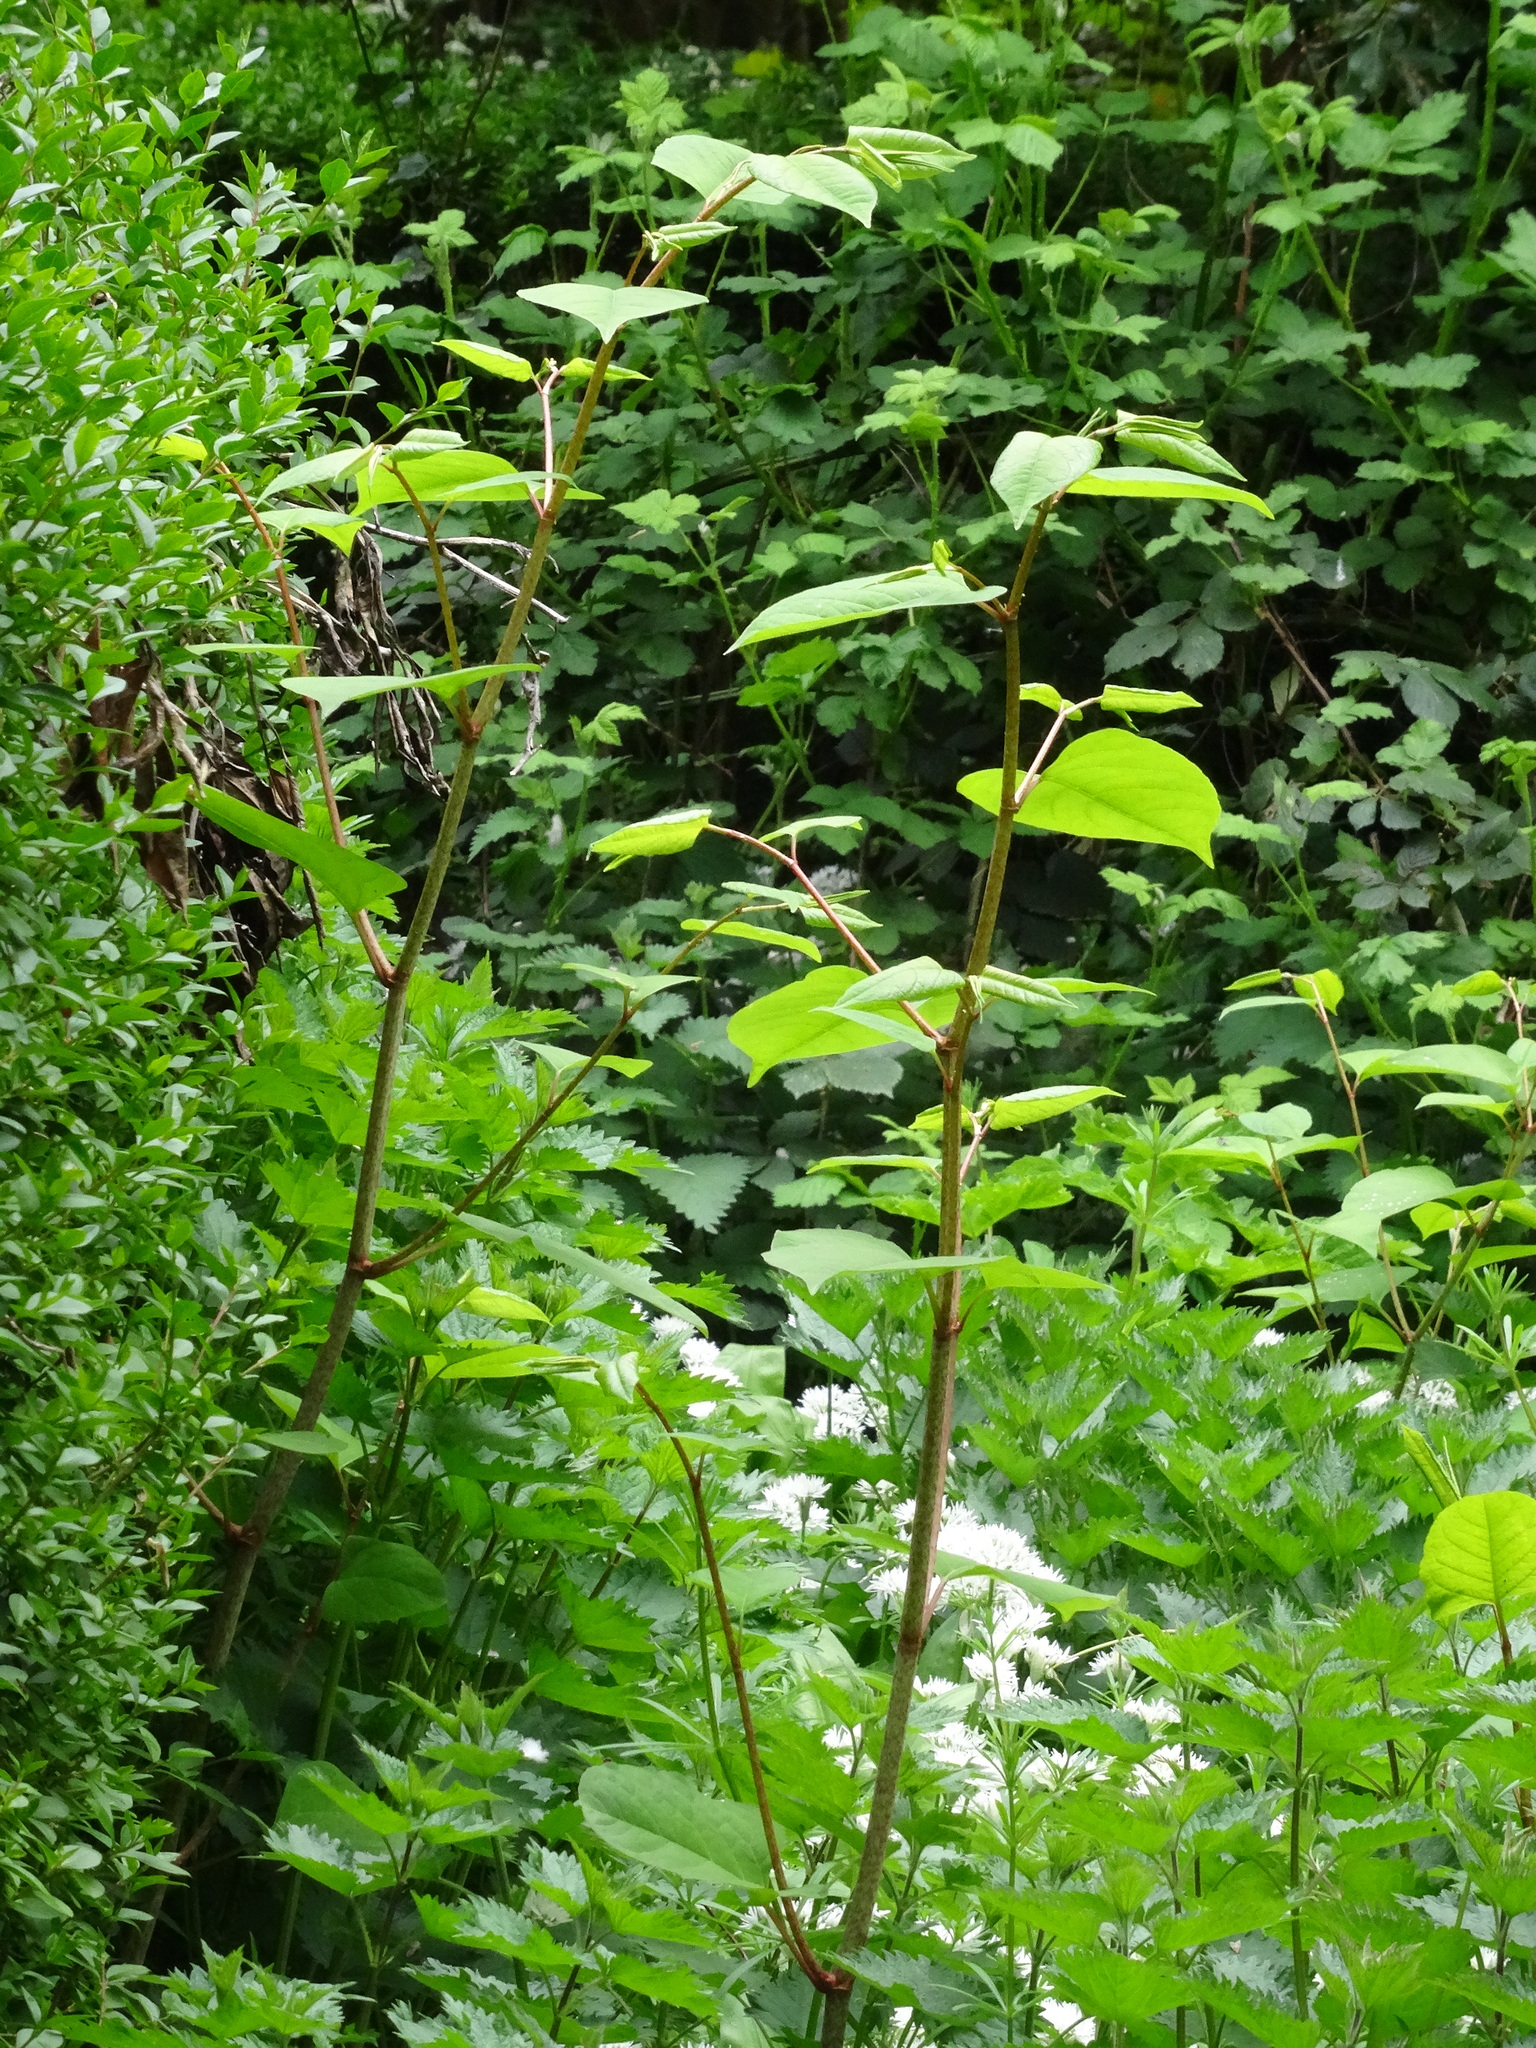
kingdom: Plantae
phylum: Tracheophyta
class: Magnoliopsida
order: Caryophyllales
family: Polygonaceae
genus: Reynoutria
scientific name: Reynoutria japonica
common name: Japanese knotweed
